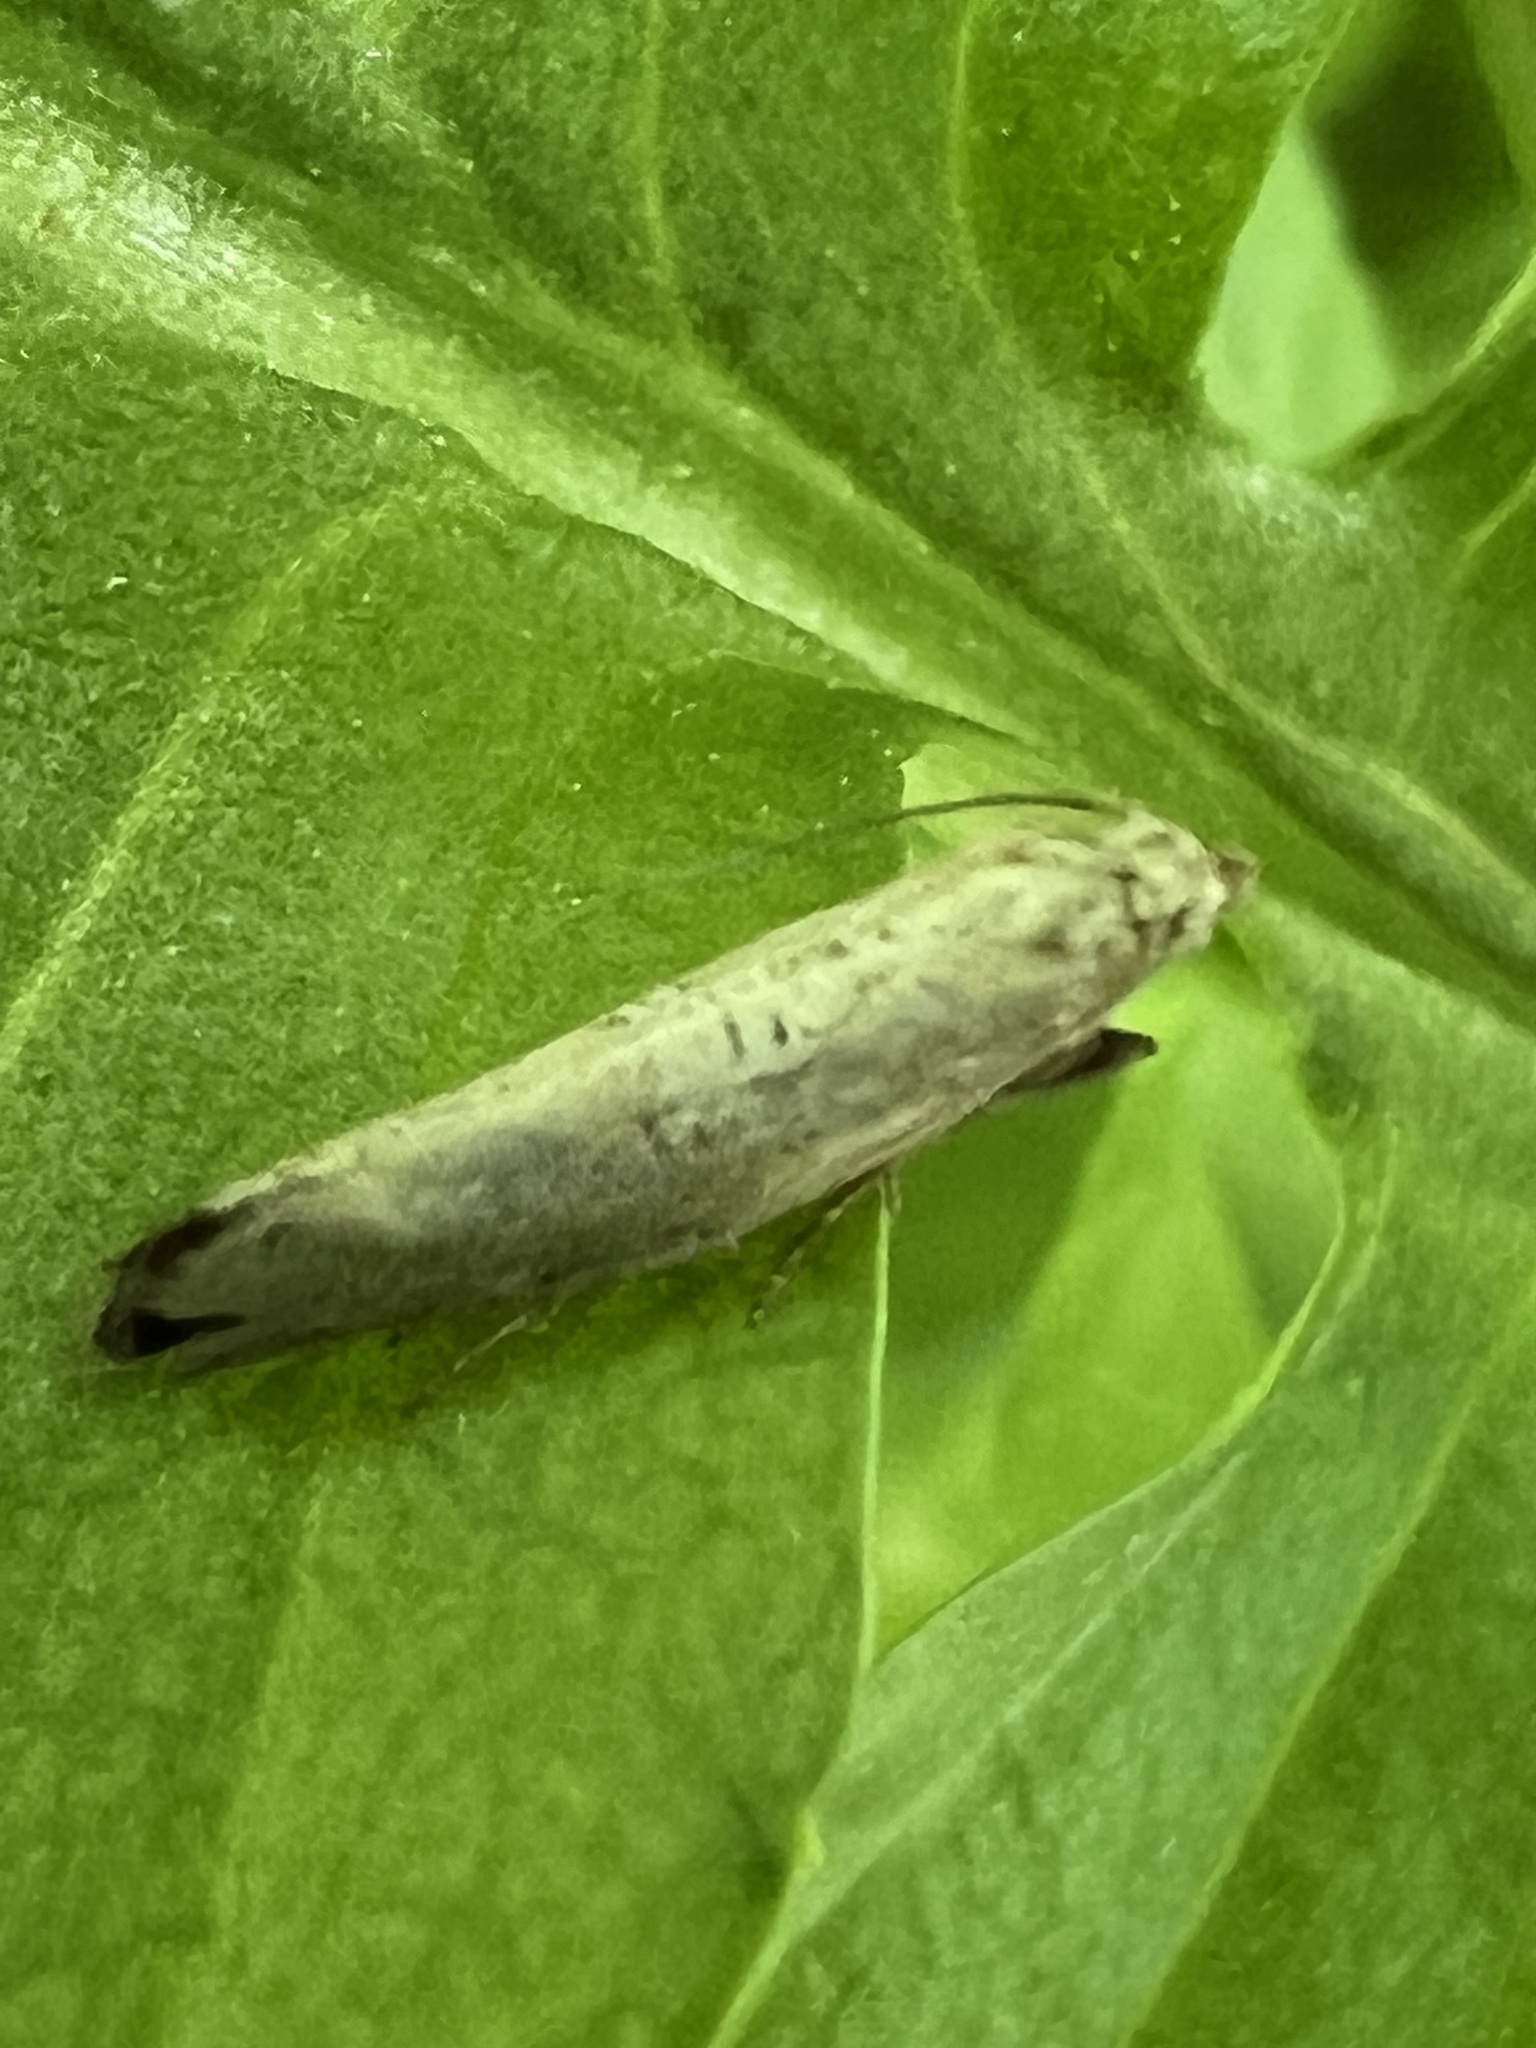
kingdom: Animalia
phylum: Arthropoda
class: Insecta
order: Lepidoptera
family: Glyphipterigidae
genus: Acrolepia
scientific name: Acrolepia Acrolepiopsis leucoscia
